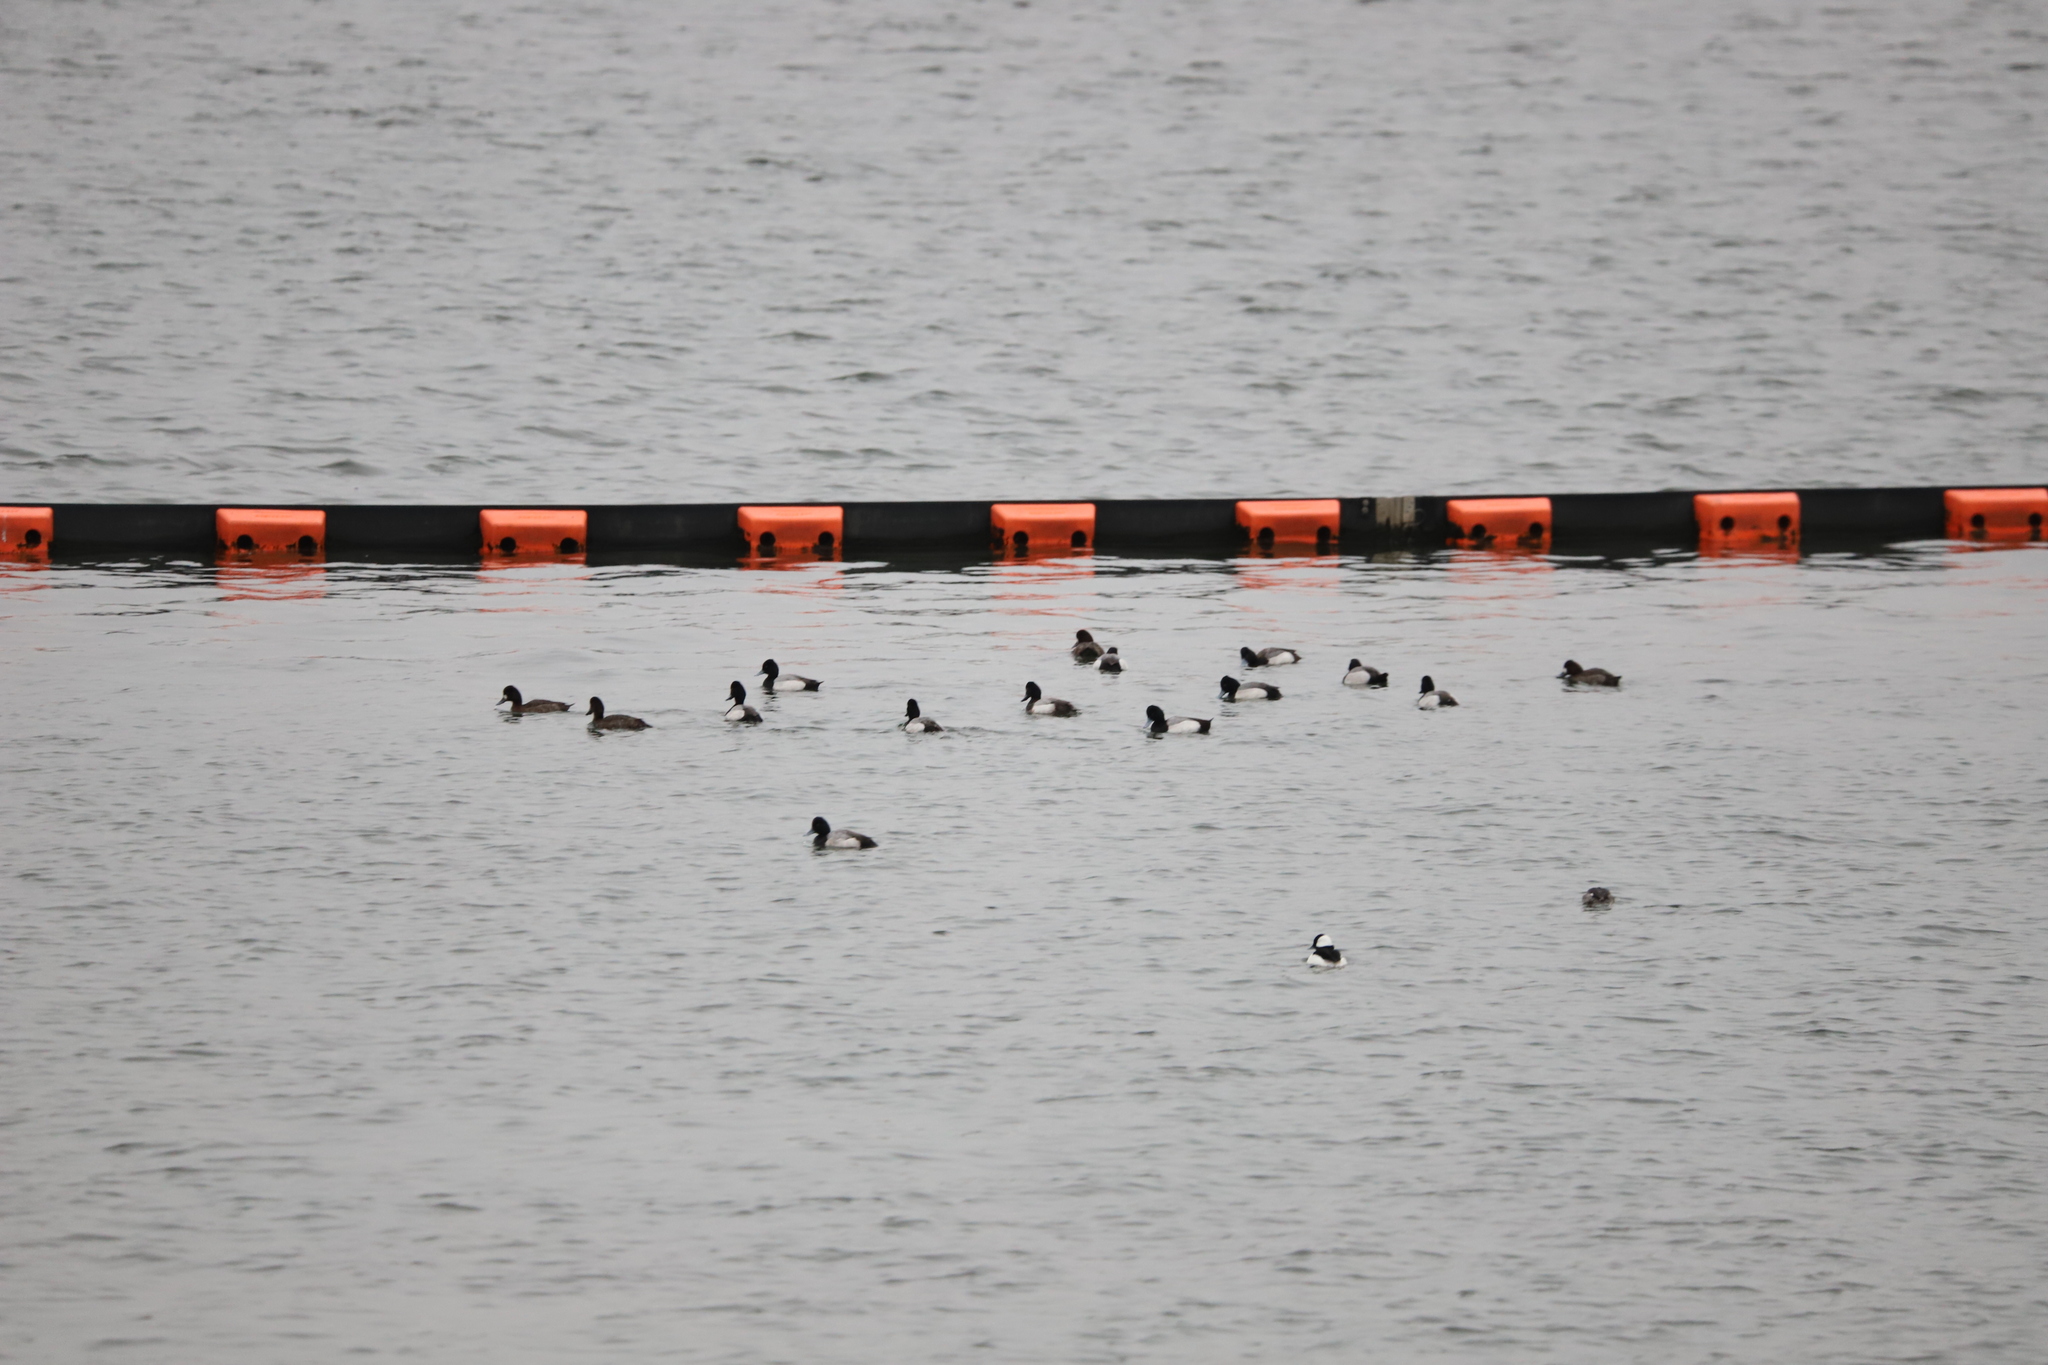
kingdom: Animalia
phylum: Chordata
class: Aves
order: Anseriformes
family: Anatidae
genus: Aythya
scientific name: Aythya affinis
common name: Lesser scaup
